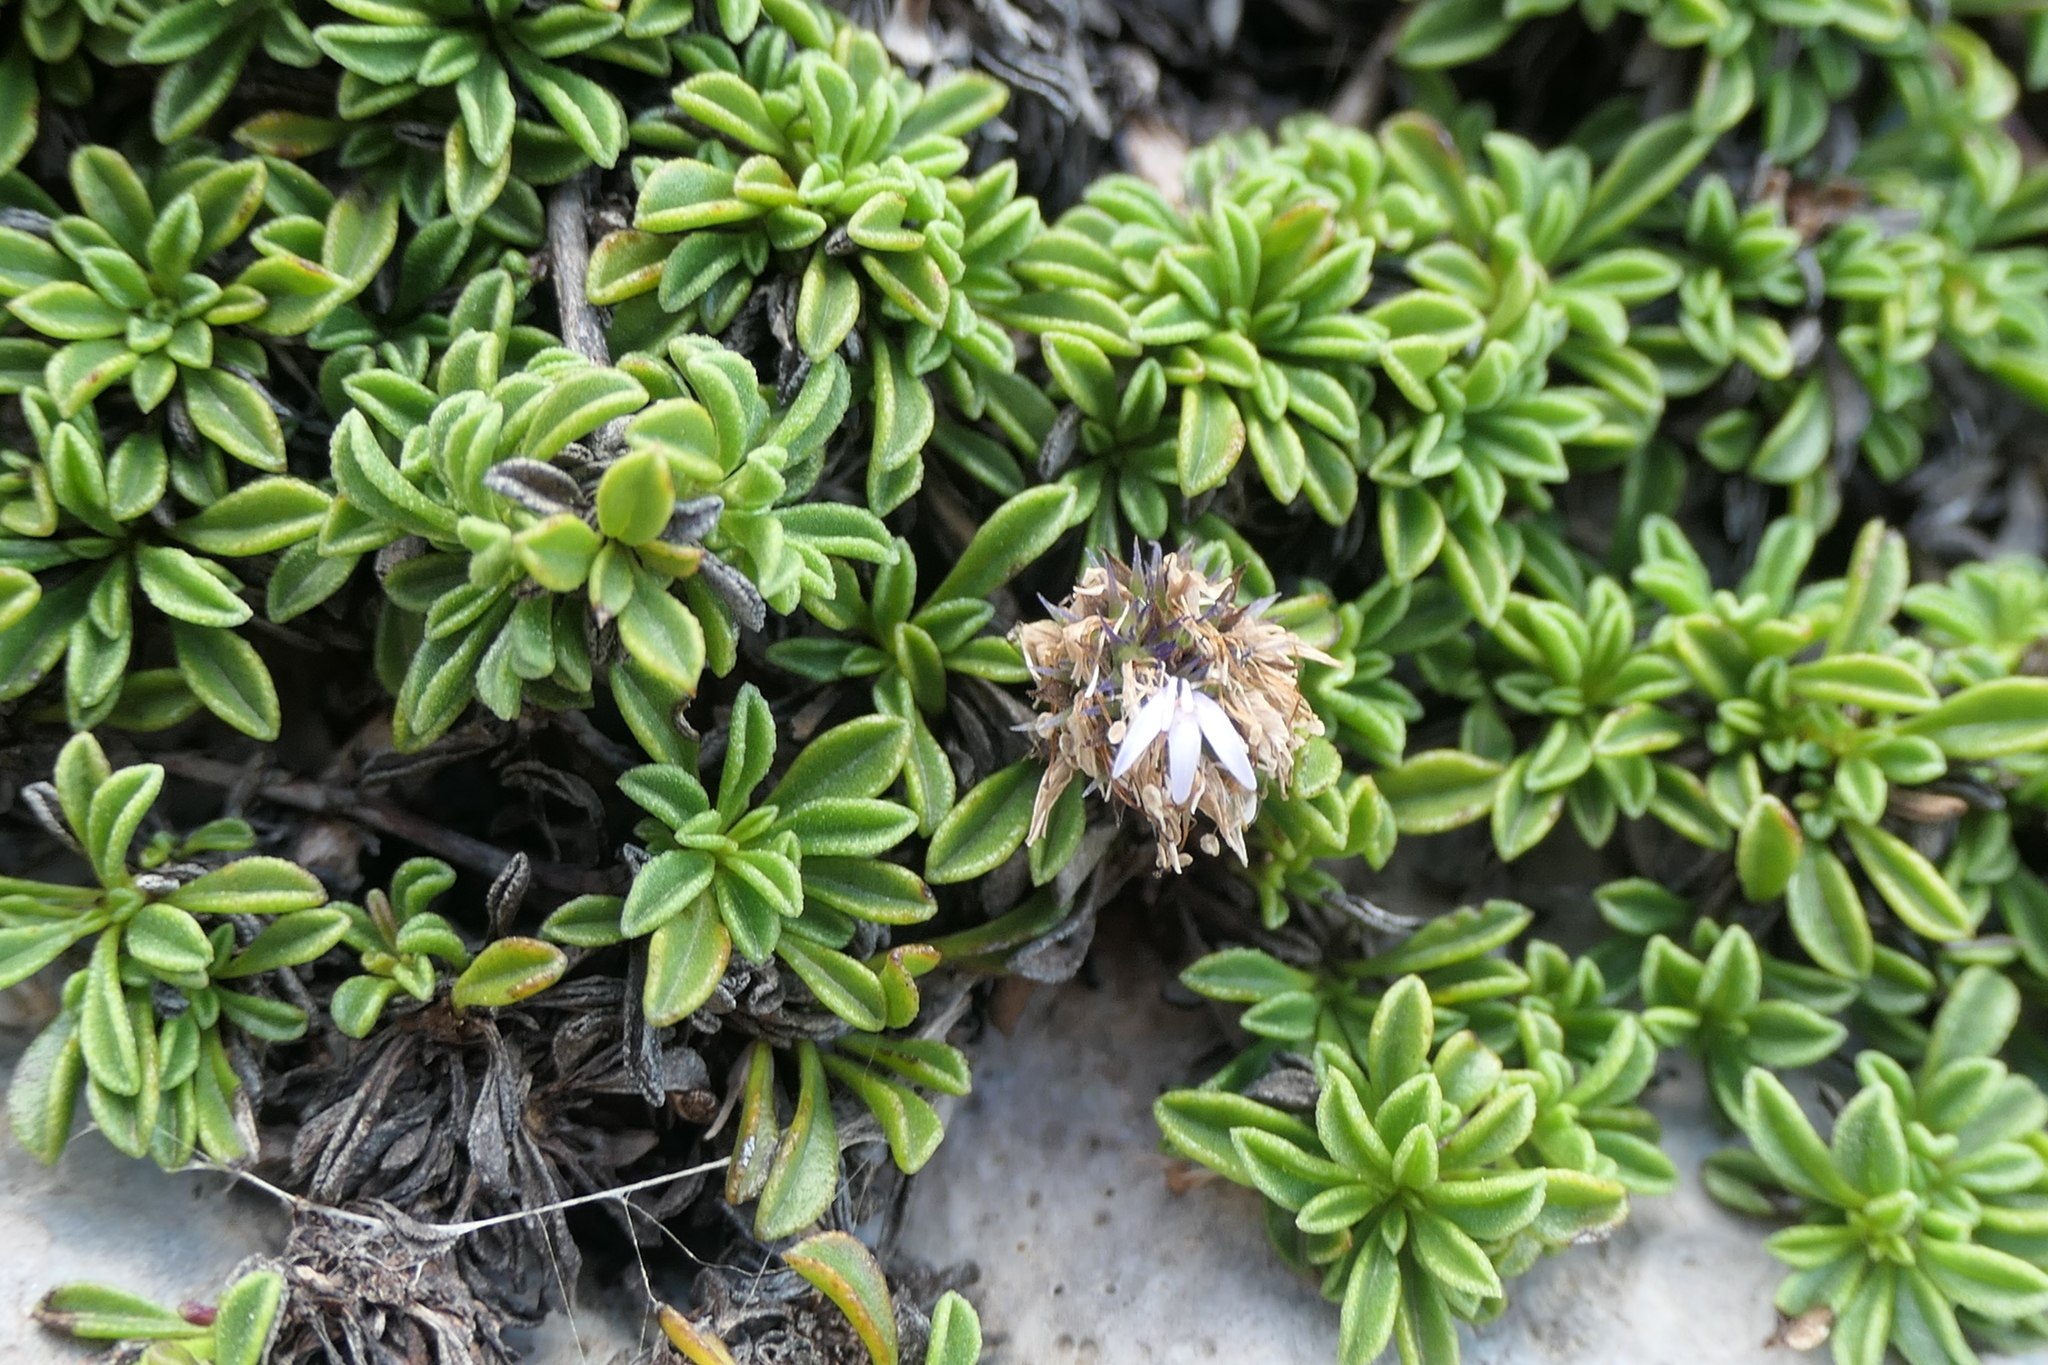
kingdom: Plantae
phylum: Tracheophyta
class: Magnoliopsida
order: Lamiales
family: Plantaginaceae
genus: Globularia
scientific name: Globularia repens
